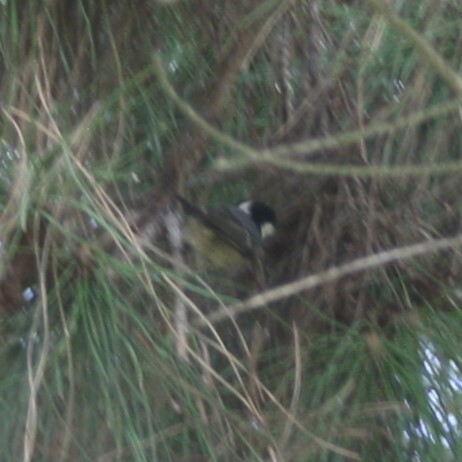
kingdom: Animalia
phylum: Chordata
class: Aves
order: Passeriformes
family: Paridae
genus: Periparus
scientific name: Periparus ater
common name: Coal tit
